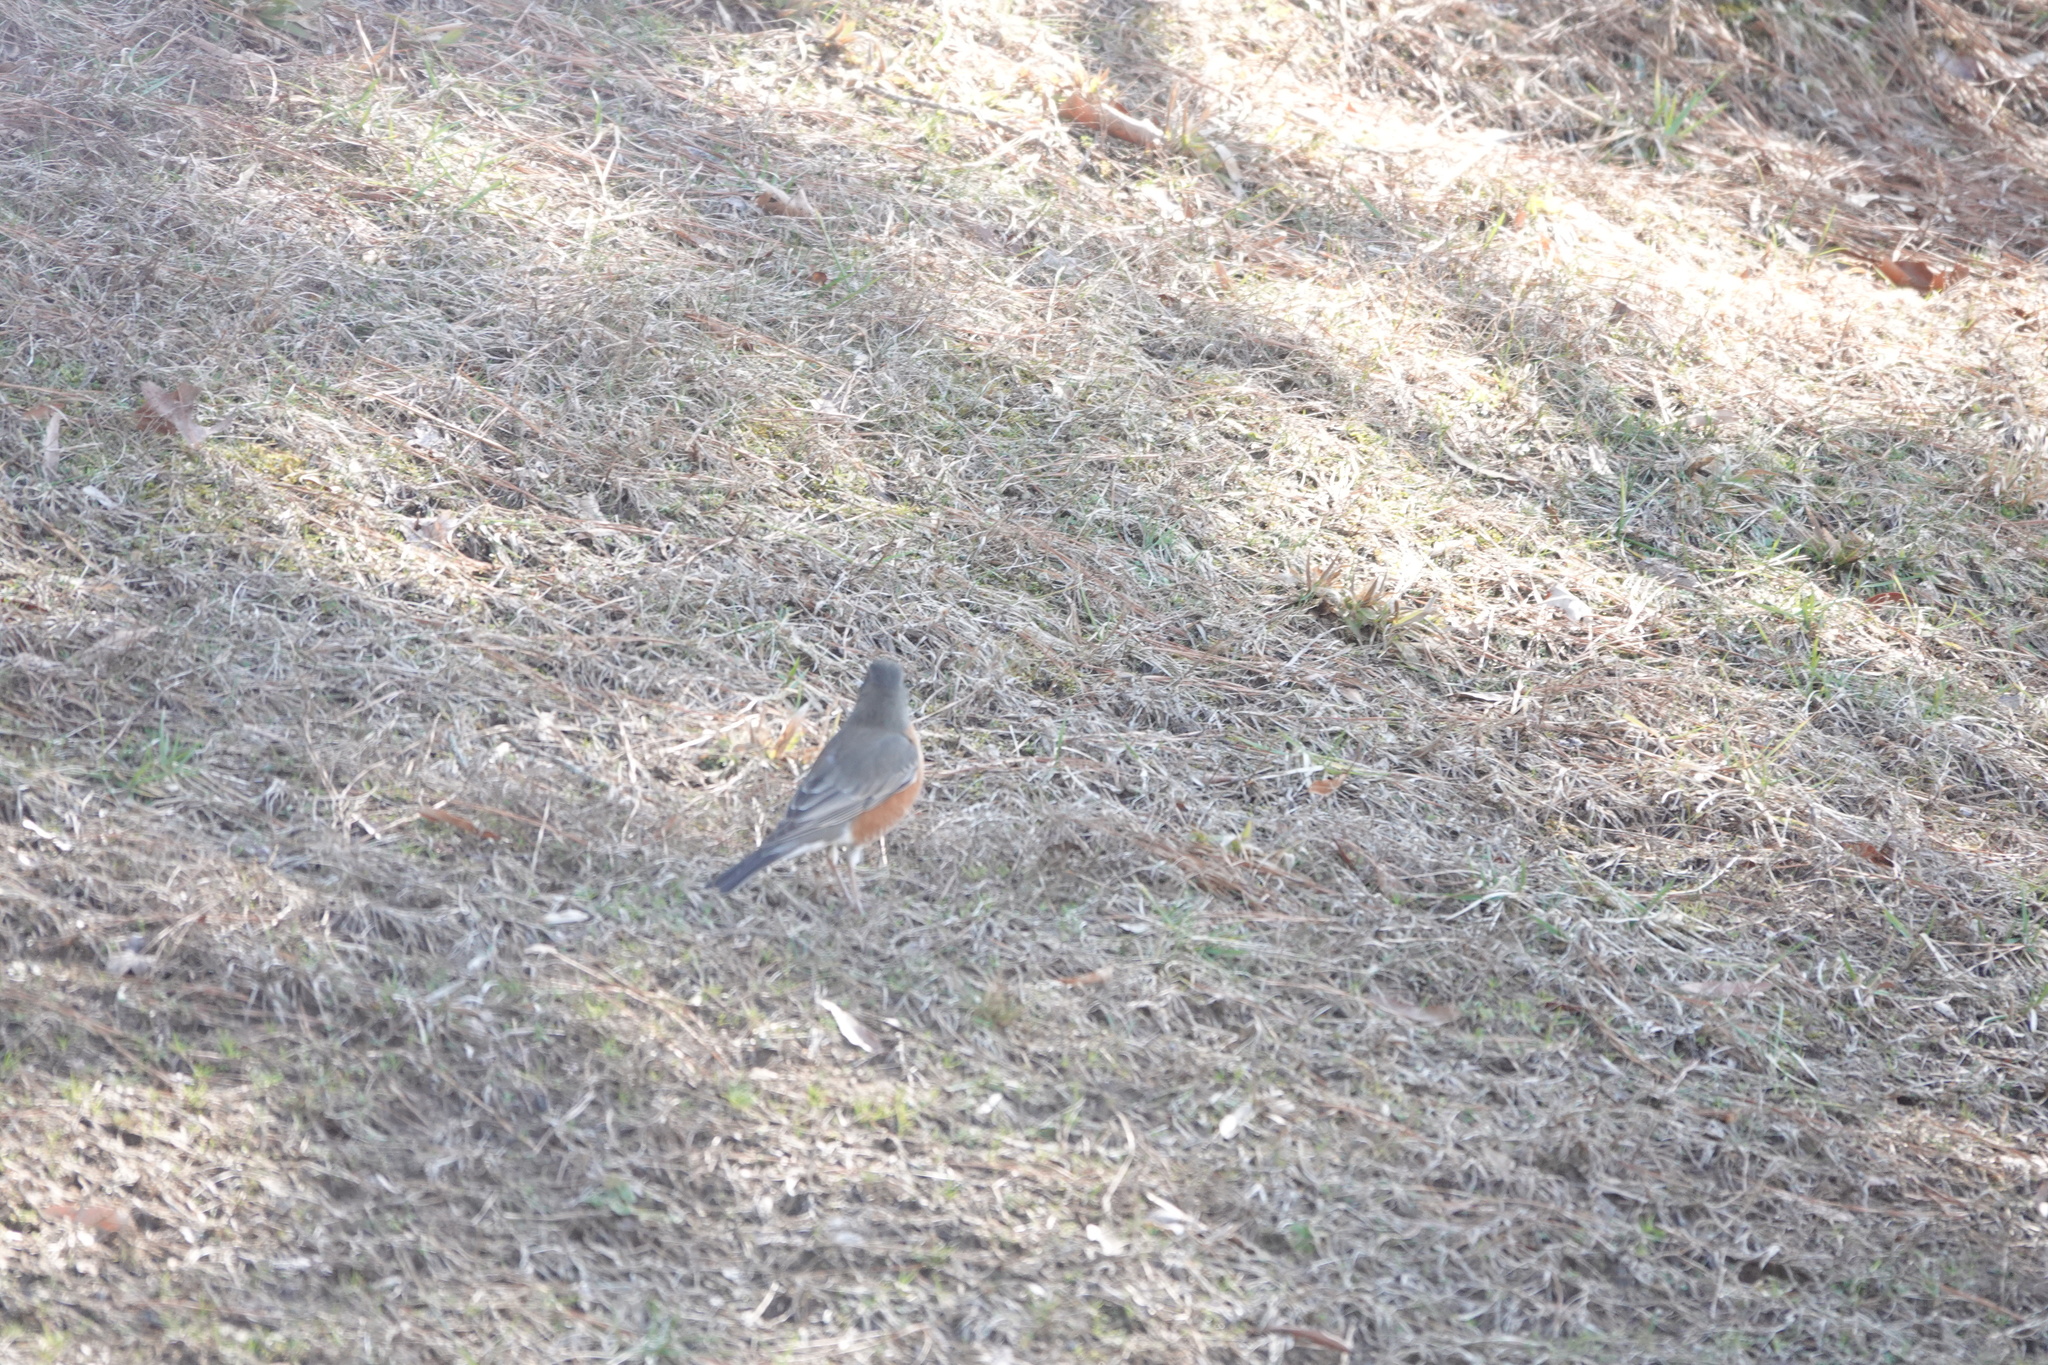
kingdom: Animalia
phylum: Chordata
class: Aves
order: Passeriformes
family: Turdidae
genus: Turdus
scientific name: Turdus migratorius
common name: American robin
